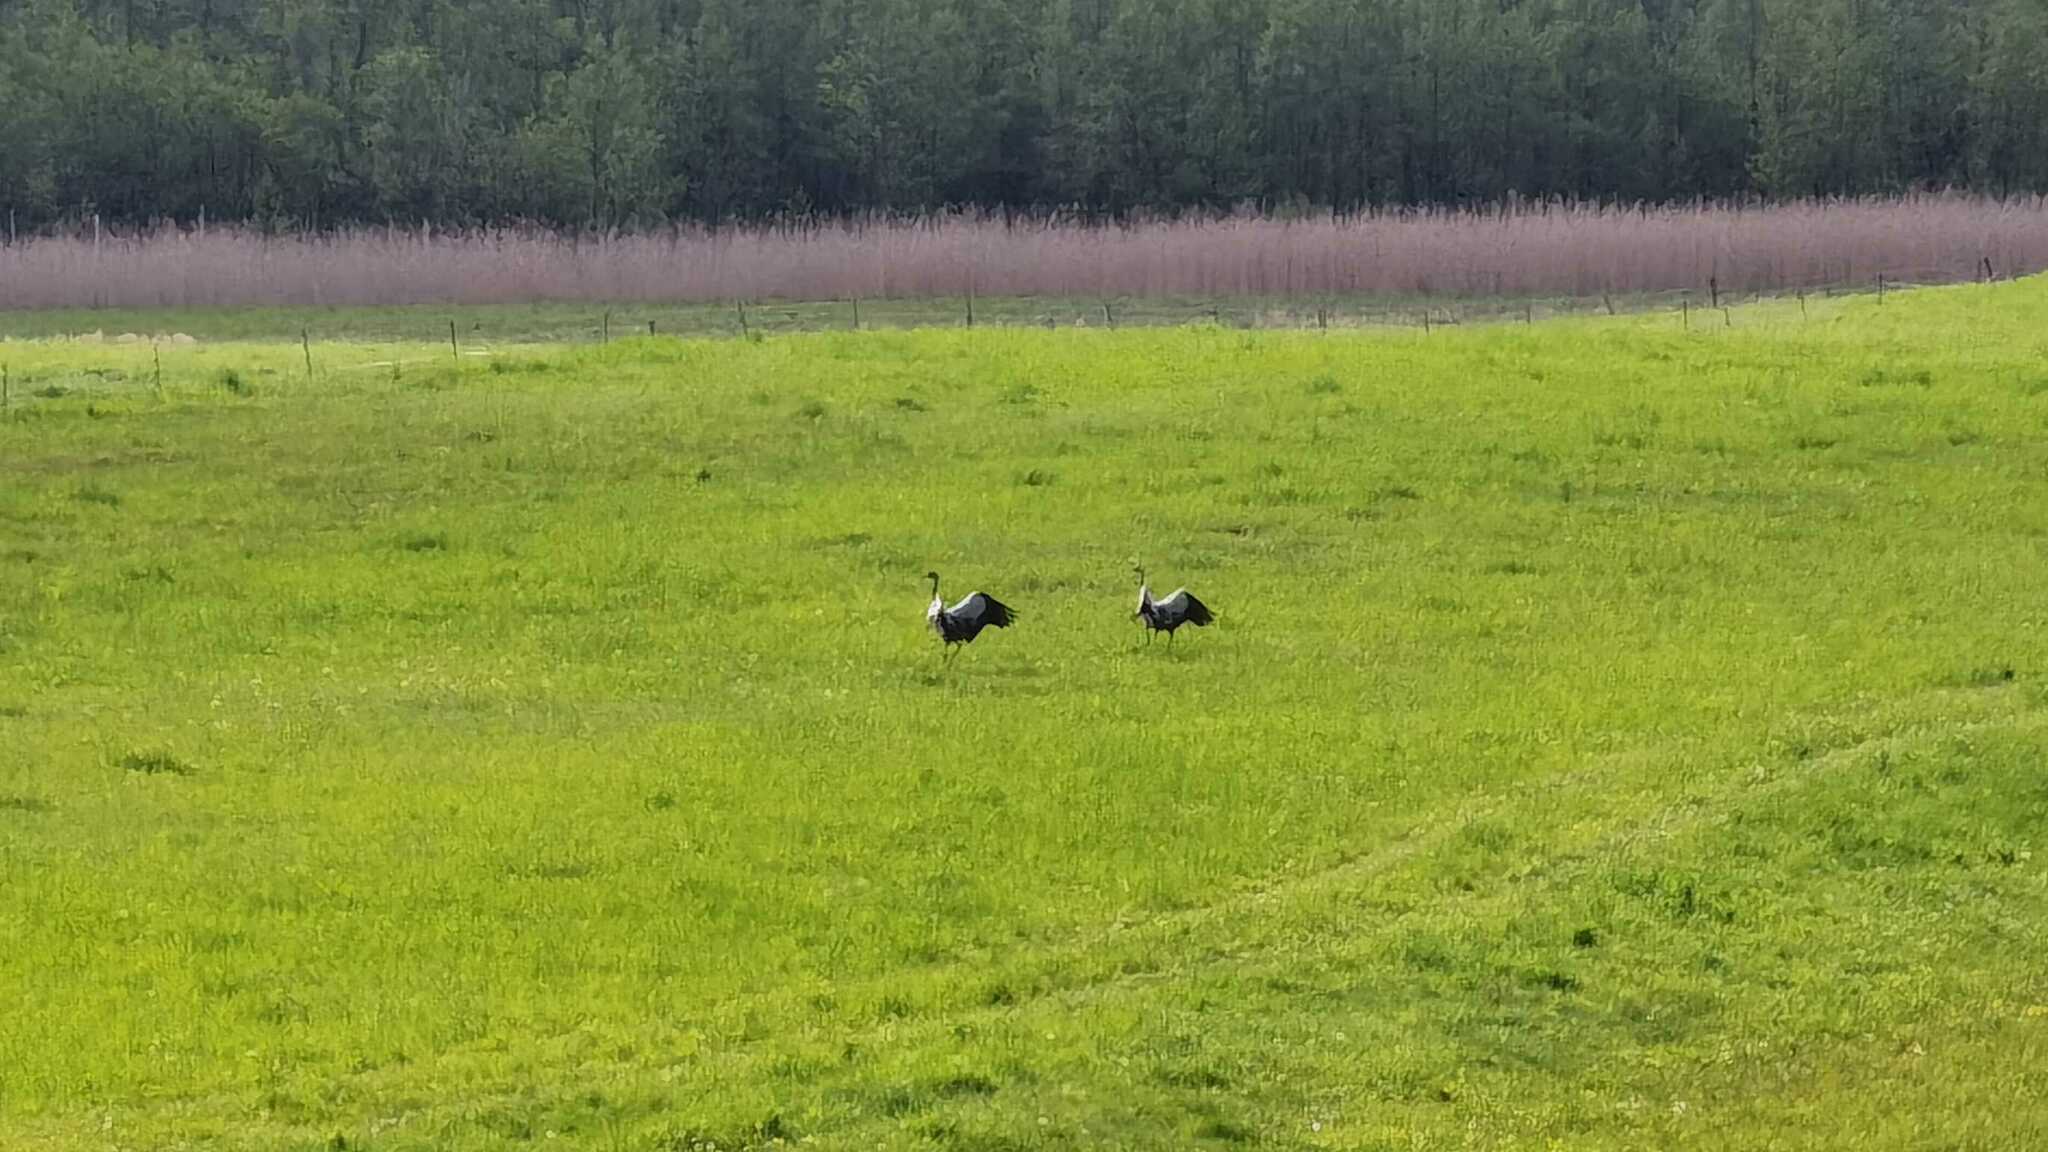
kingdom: Animalia
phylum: Chordata
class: Aves
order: Gruiformes
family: Gruidae
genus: Grus
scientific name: Grus grus
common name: Common crane
